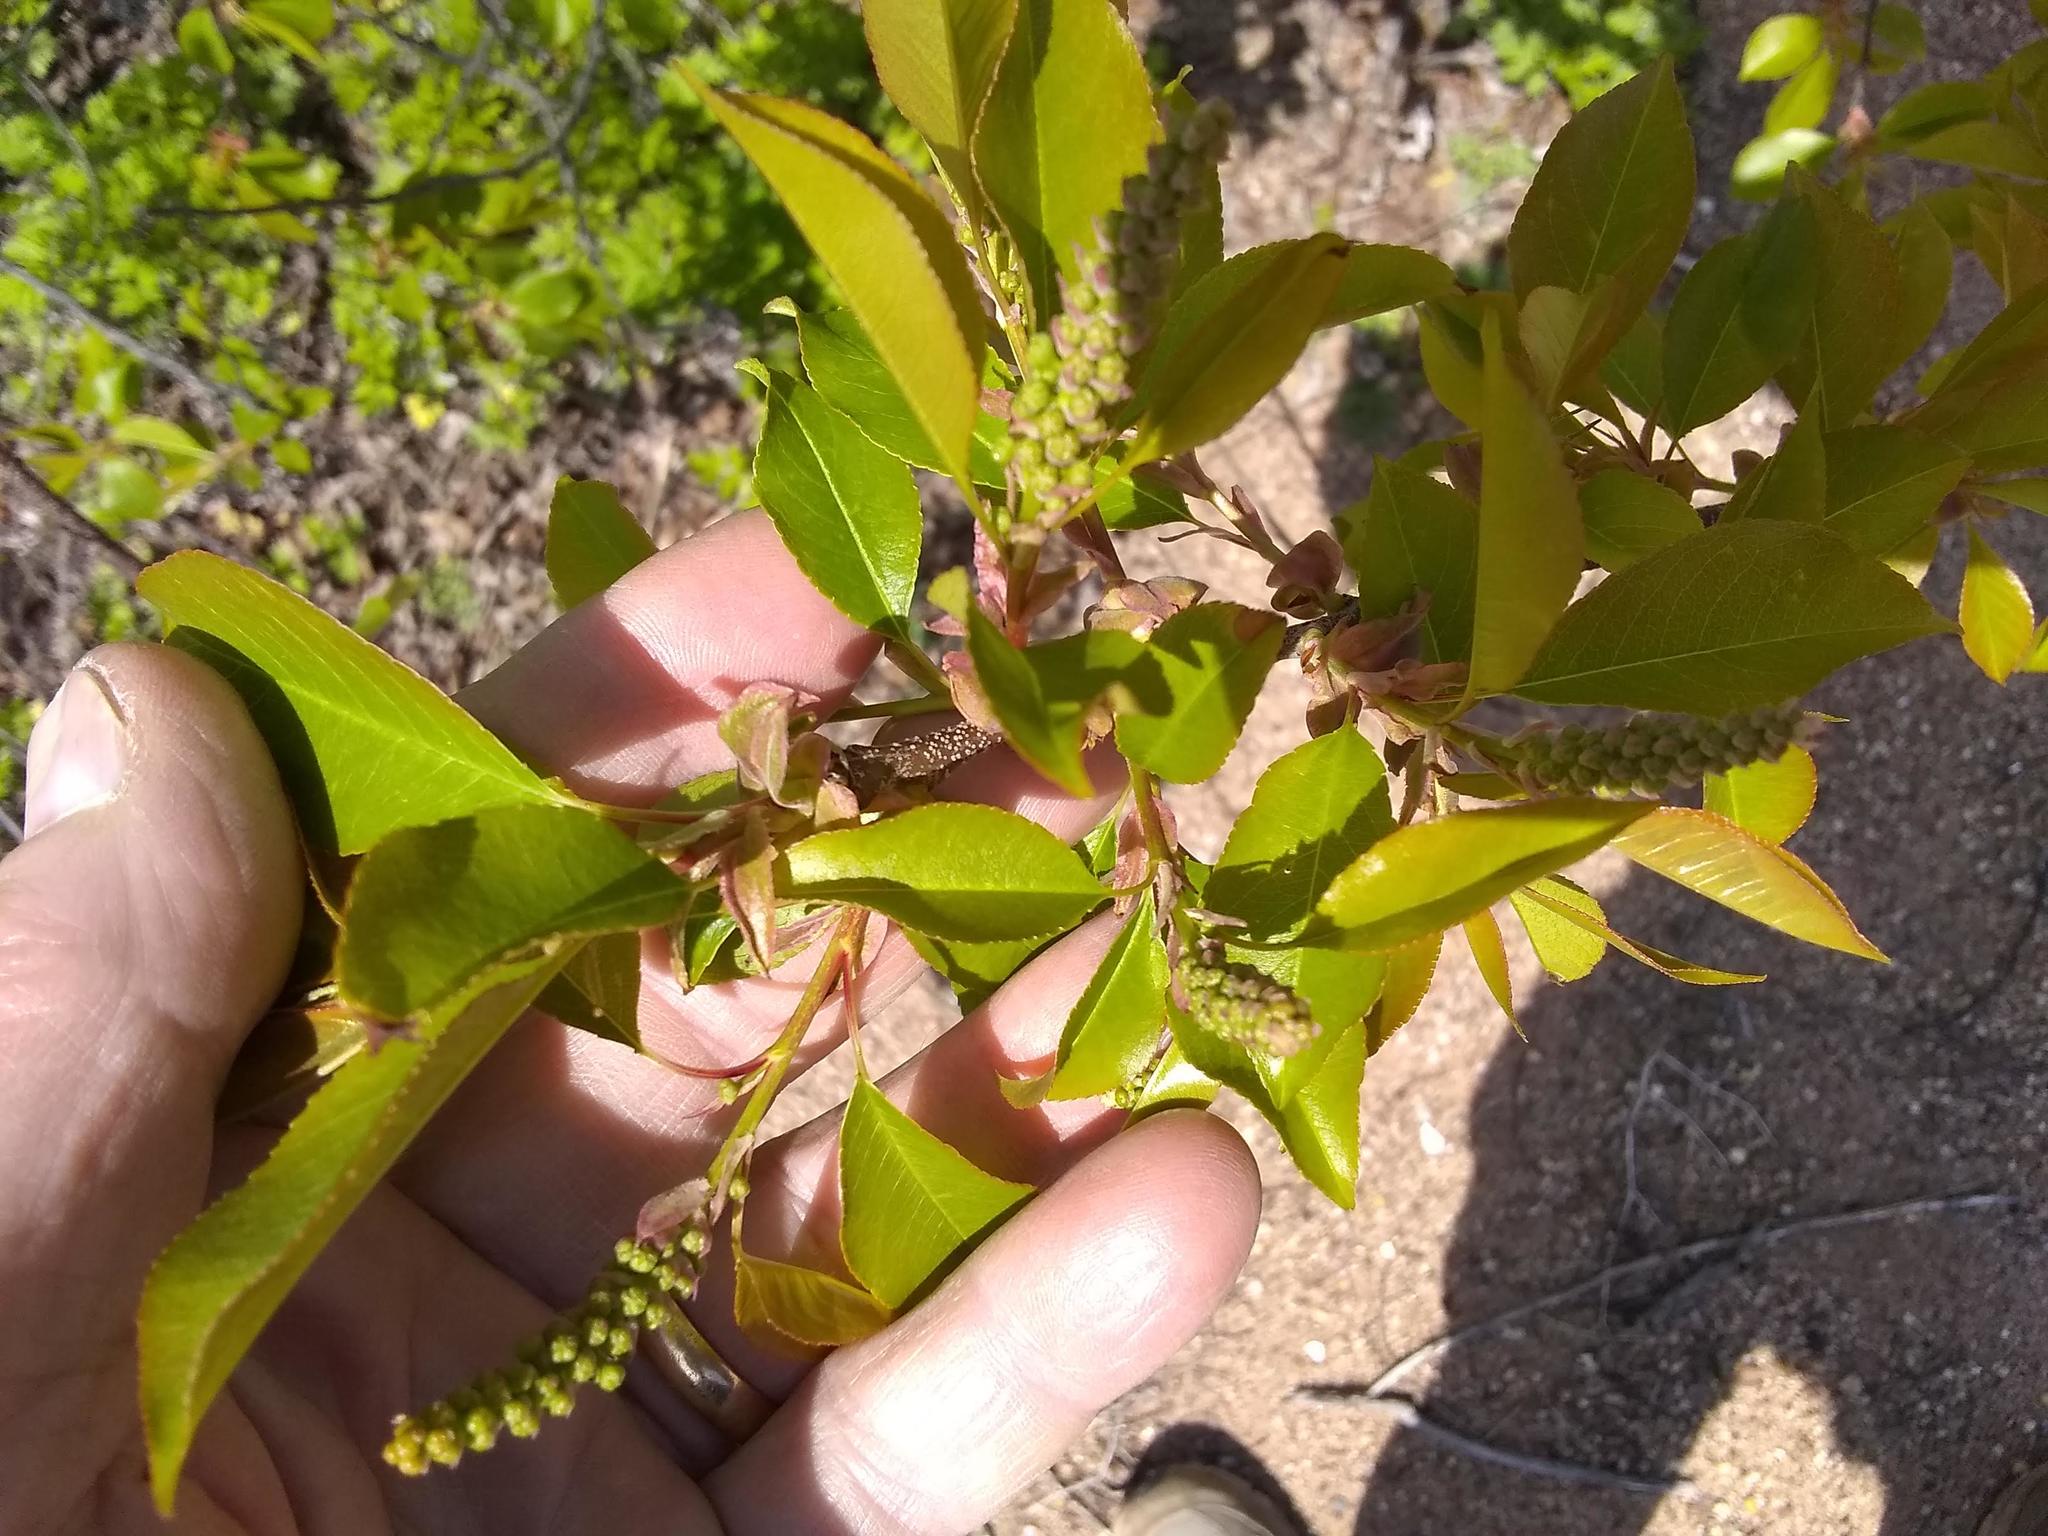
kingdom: Plantae
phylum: Tracheophyta
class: Magnoliopsida
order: Rosales
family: Rosaceae
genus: Prunus
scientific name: Prunus serotina
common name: Black cherry
